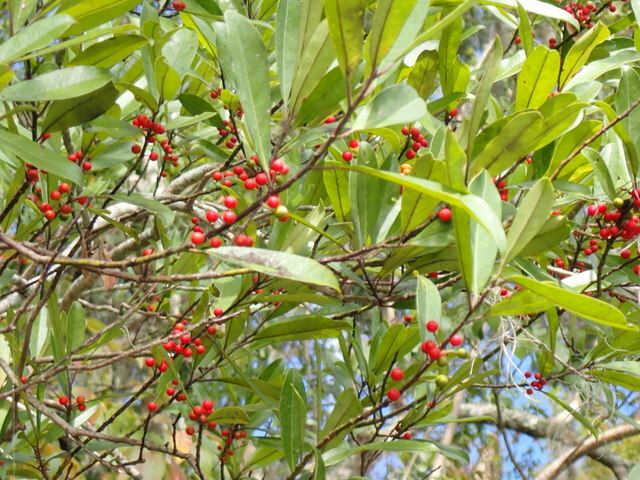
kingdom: Plantae
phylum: Tracheophyta
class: Magnoliopsida
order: Aquifoliales
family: Aquifoliaceae
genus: Ilex
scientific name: Ilex cassine
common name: Dahoon
